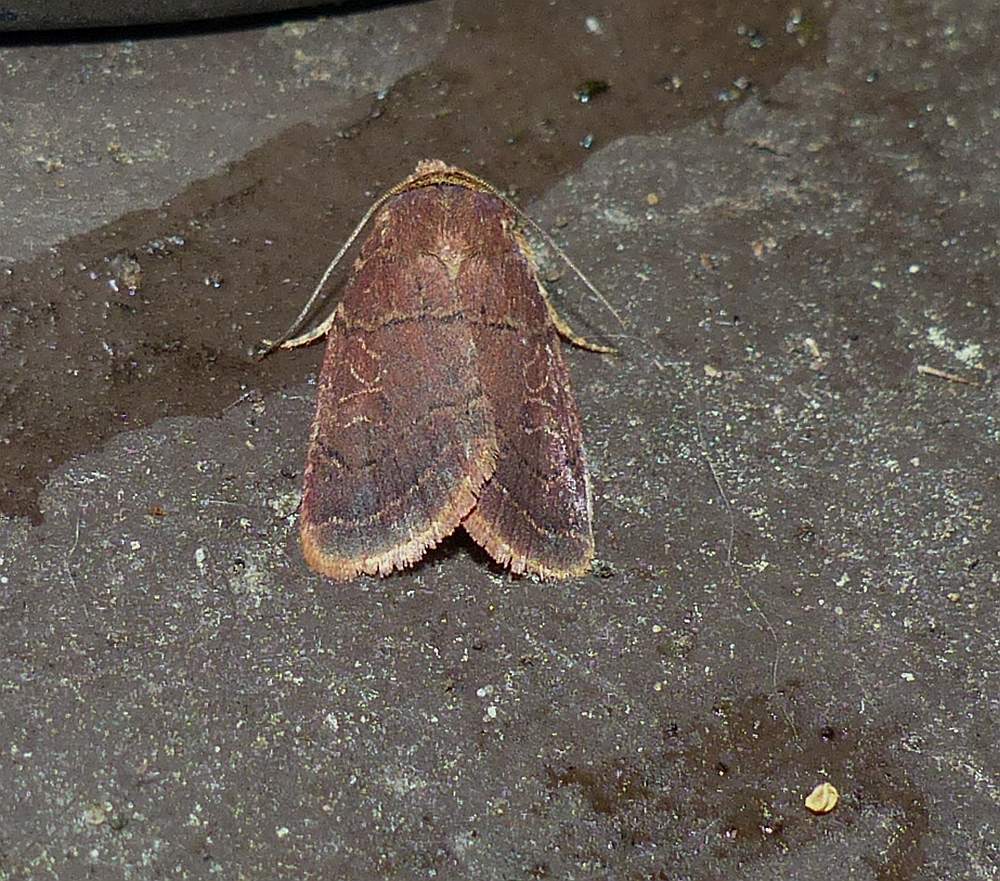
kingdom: Animalia
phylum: Arthropoda
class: Insecta
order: Lepidoptera
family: Noctuidae
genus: Orthodes
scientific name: Orthodes cynica
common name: Cynical quaker
